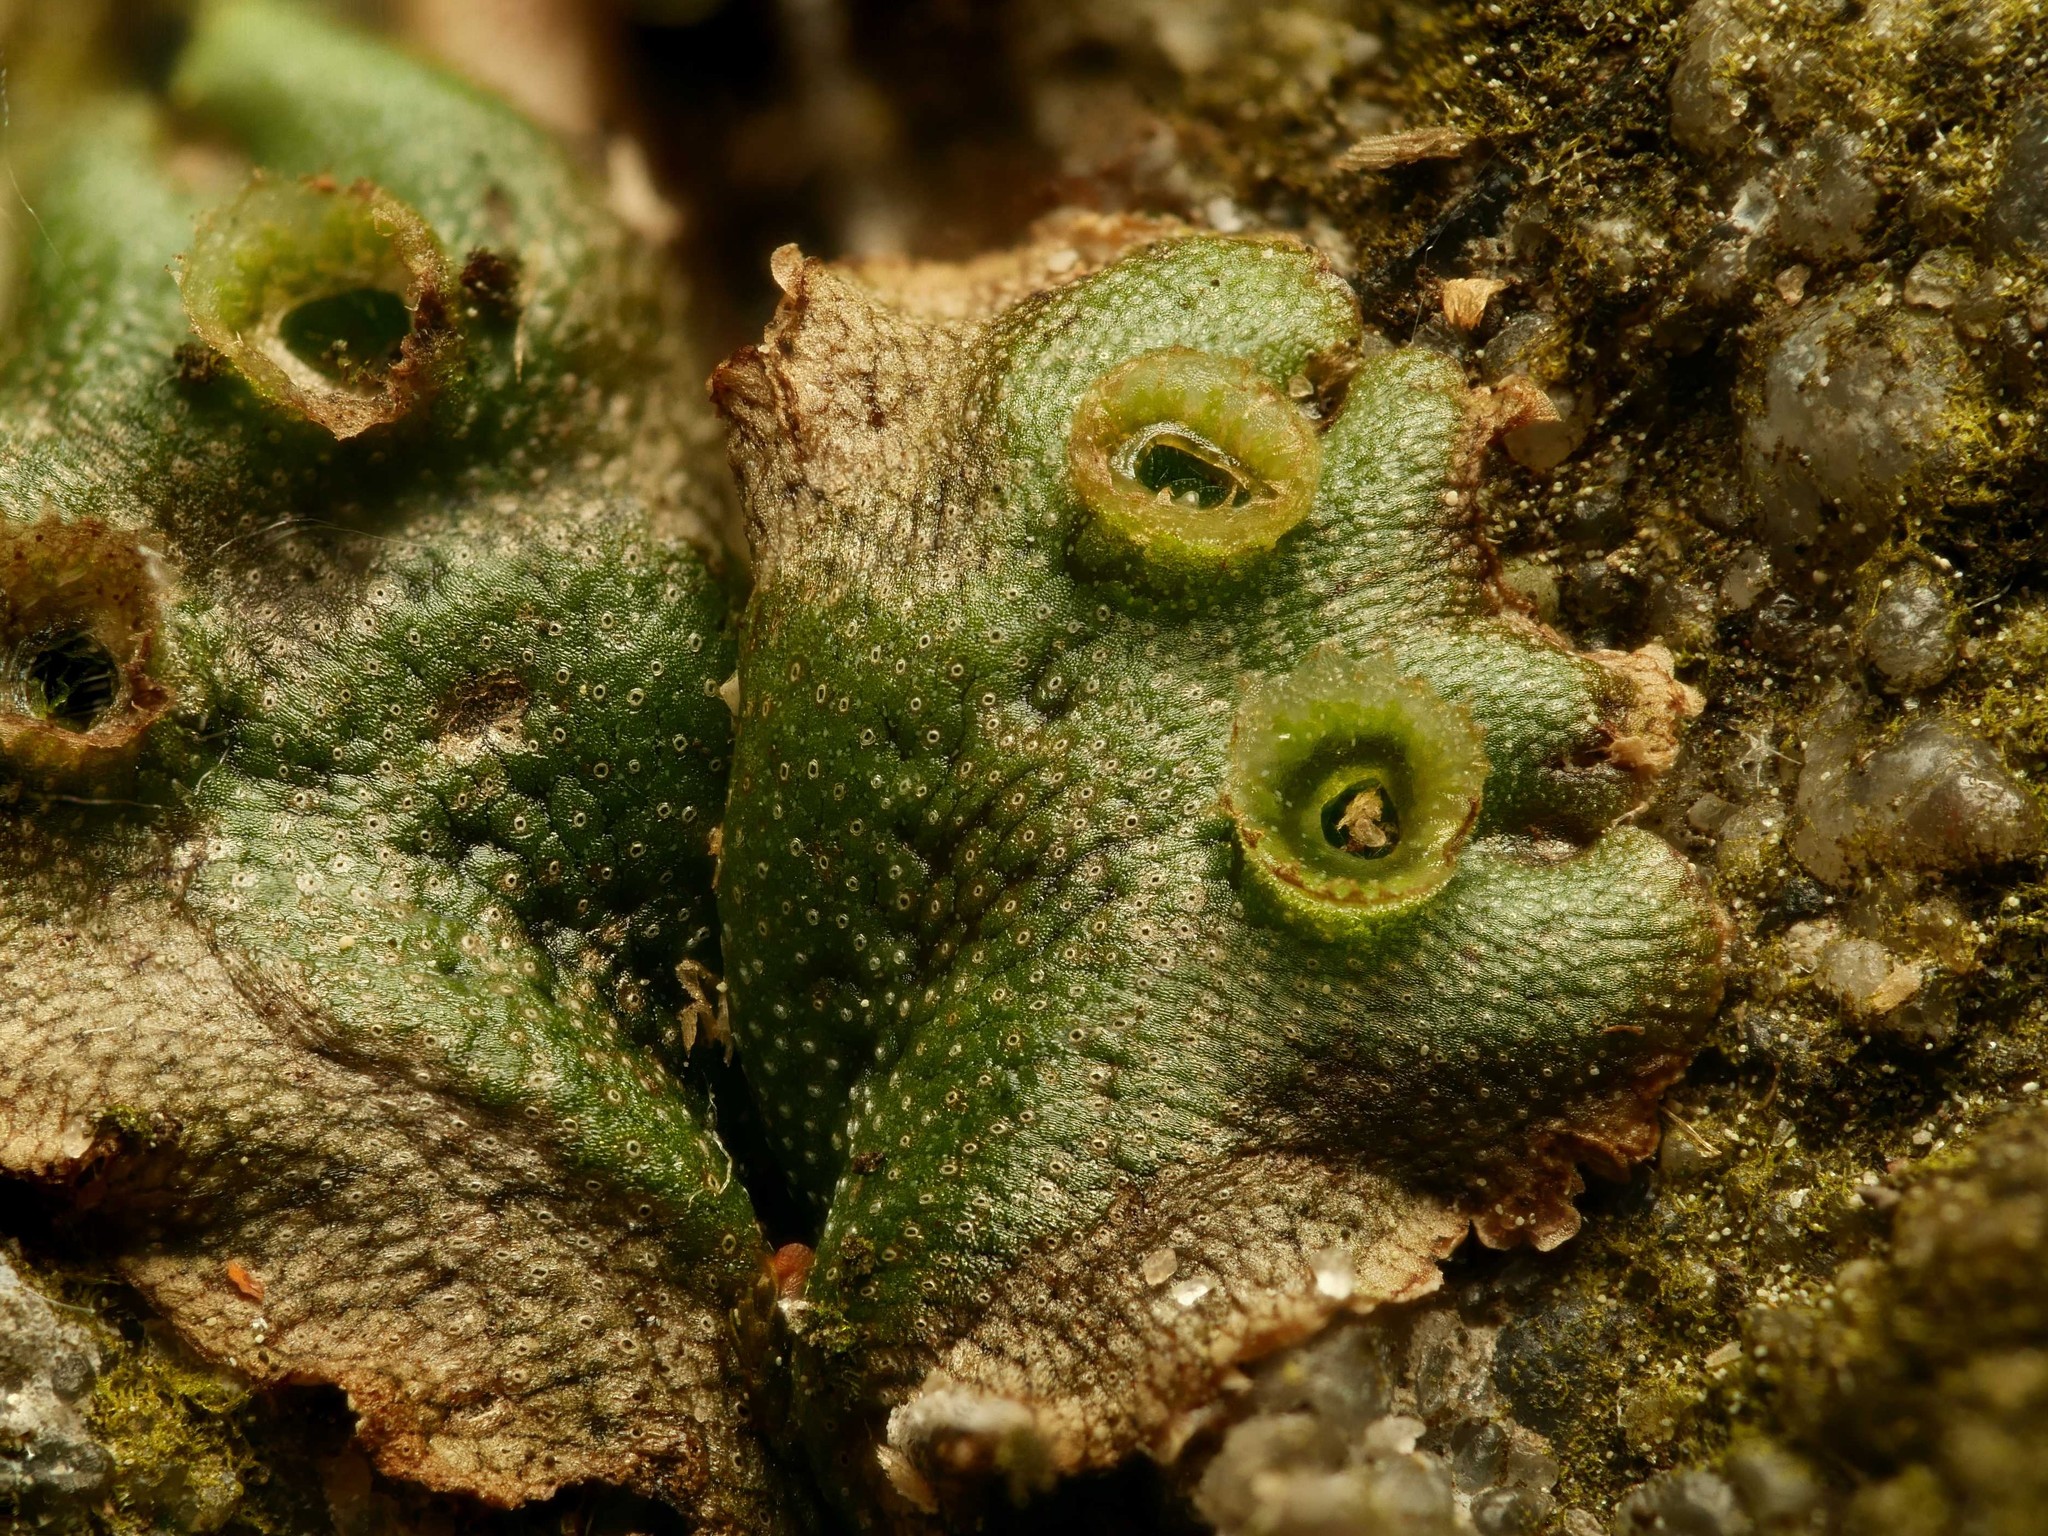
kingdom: Plantae
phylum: Marchantiophyta
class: Marchantiopsida
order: Marchantiales
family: Marchantiaceae
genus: Marchantia
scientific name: Marchantia polymorpha
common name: Common liverwort
